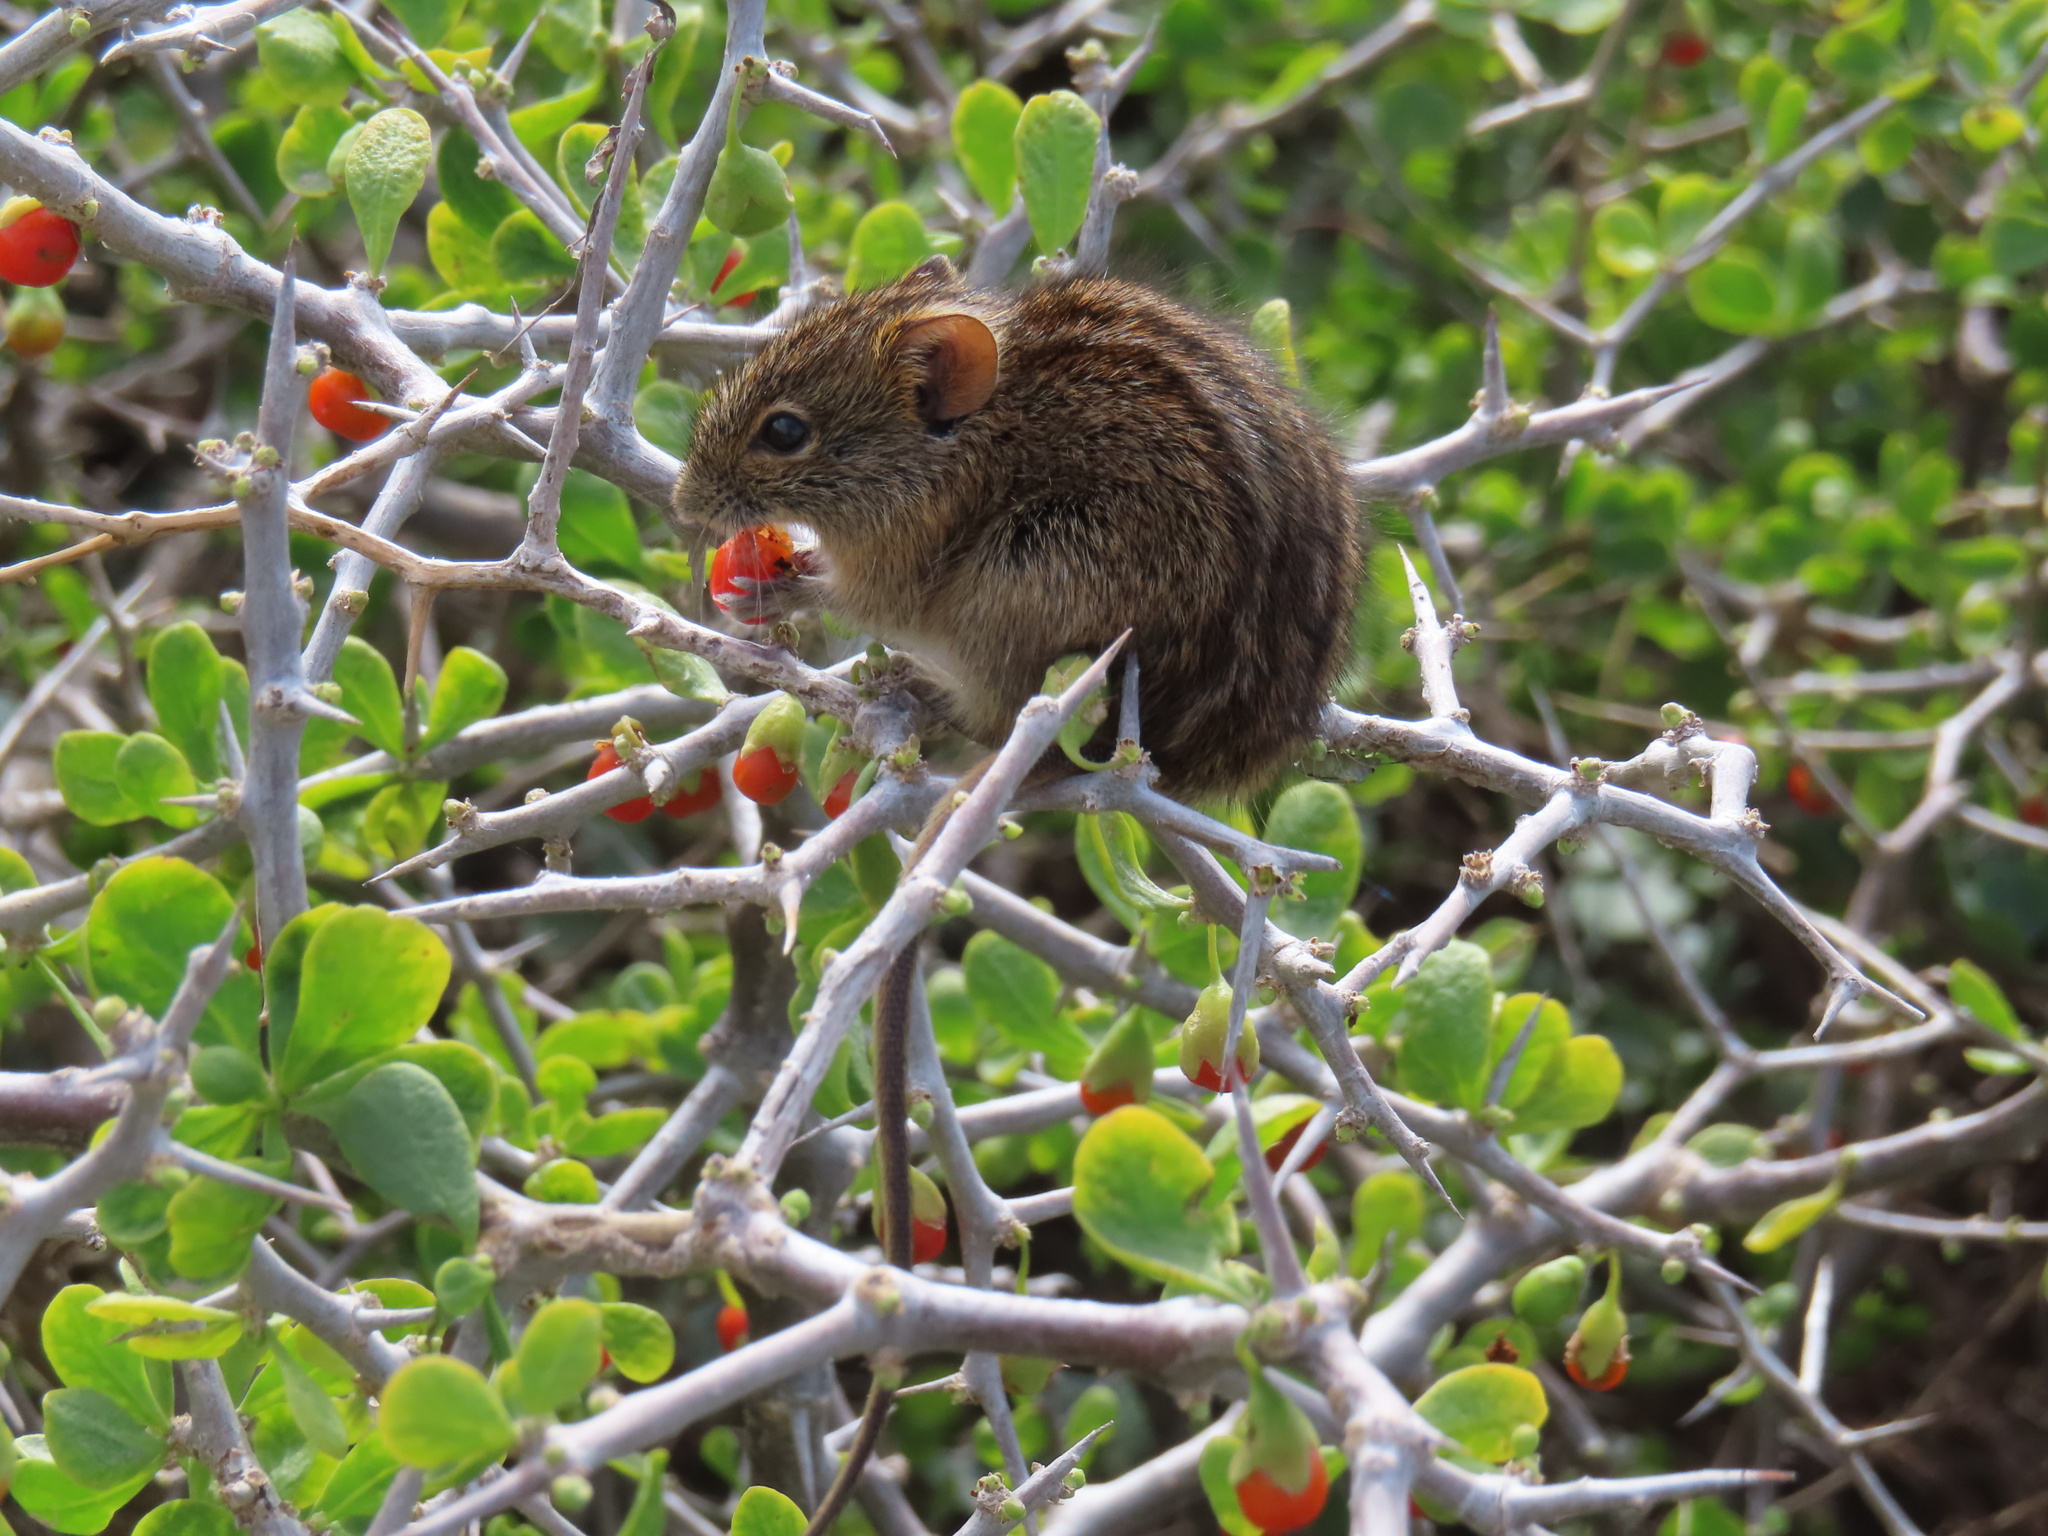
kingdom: Animalia
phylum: Chordata
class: Mammalia
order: Rodentia
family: Muridae
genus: Rhabdomys
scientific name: Rhabdomys pumilio
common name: Xeric four-striped grass rat
